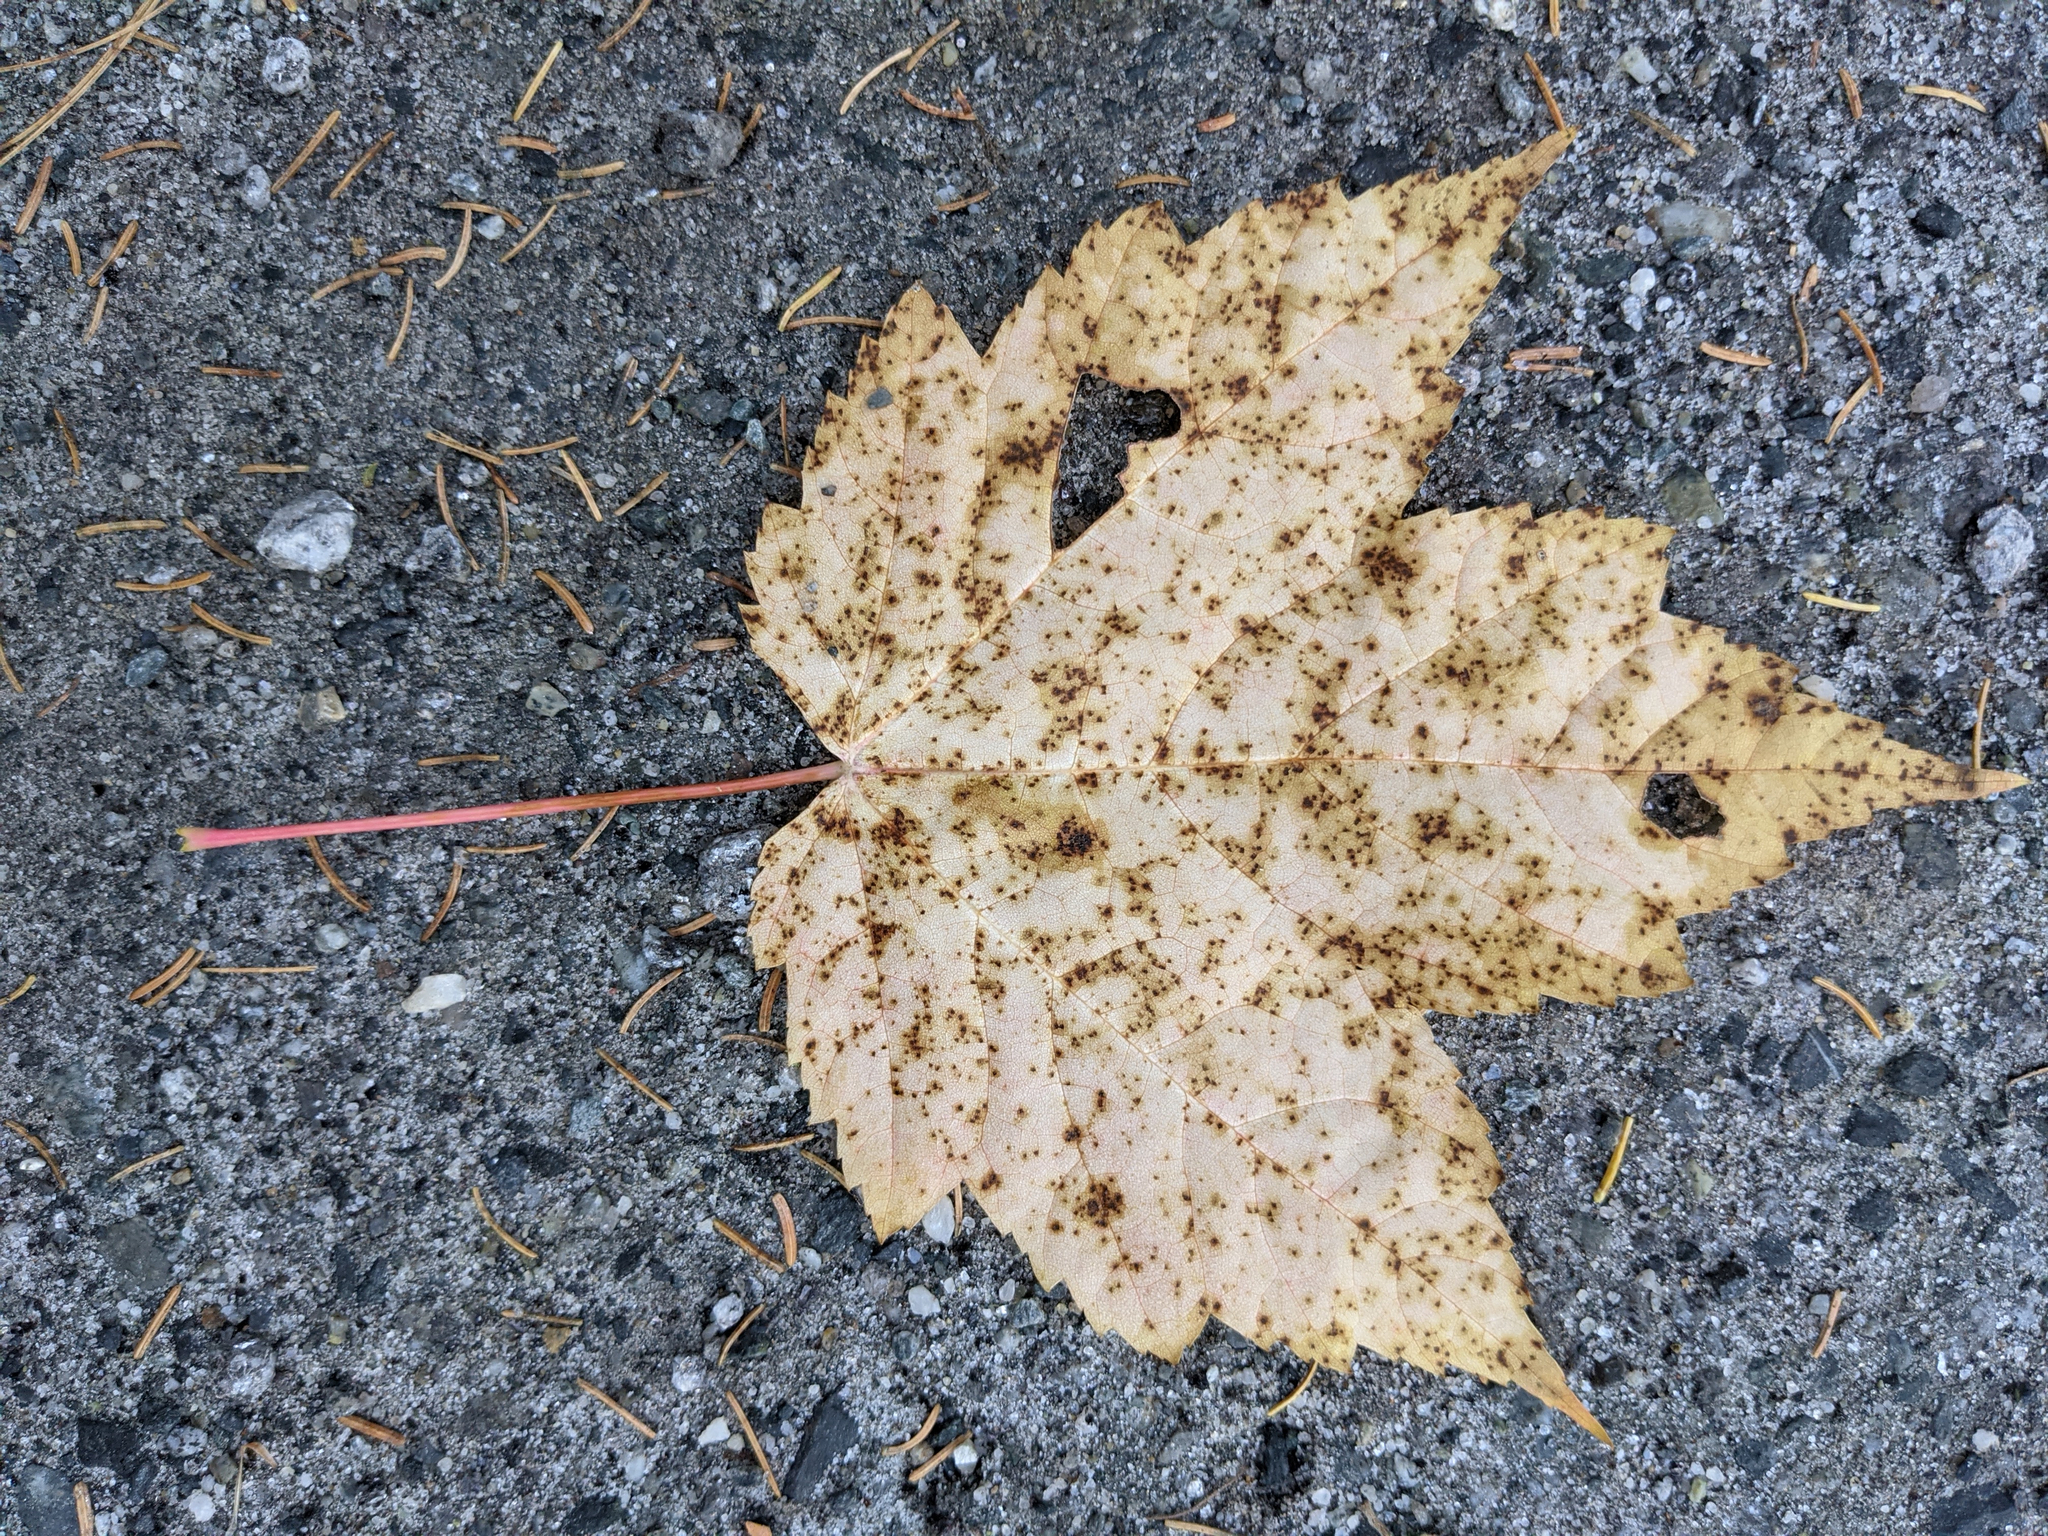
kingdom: Plantae
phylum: Tracheophyta
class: Magnoliopsida
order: Sapindales
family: Sapindaceae
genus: Acer
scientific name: Acer rubrum
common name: Red maple
